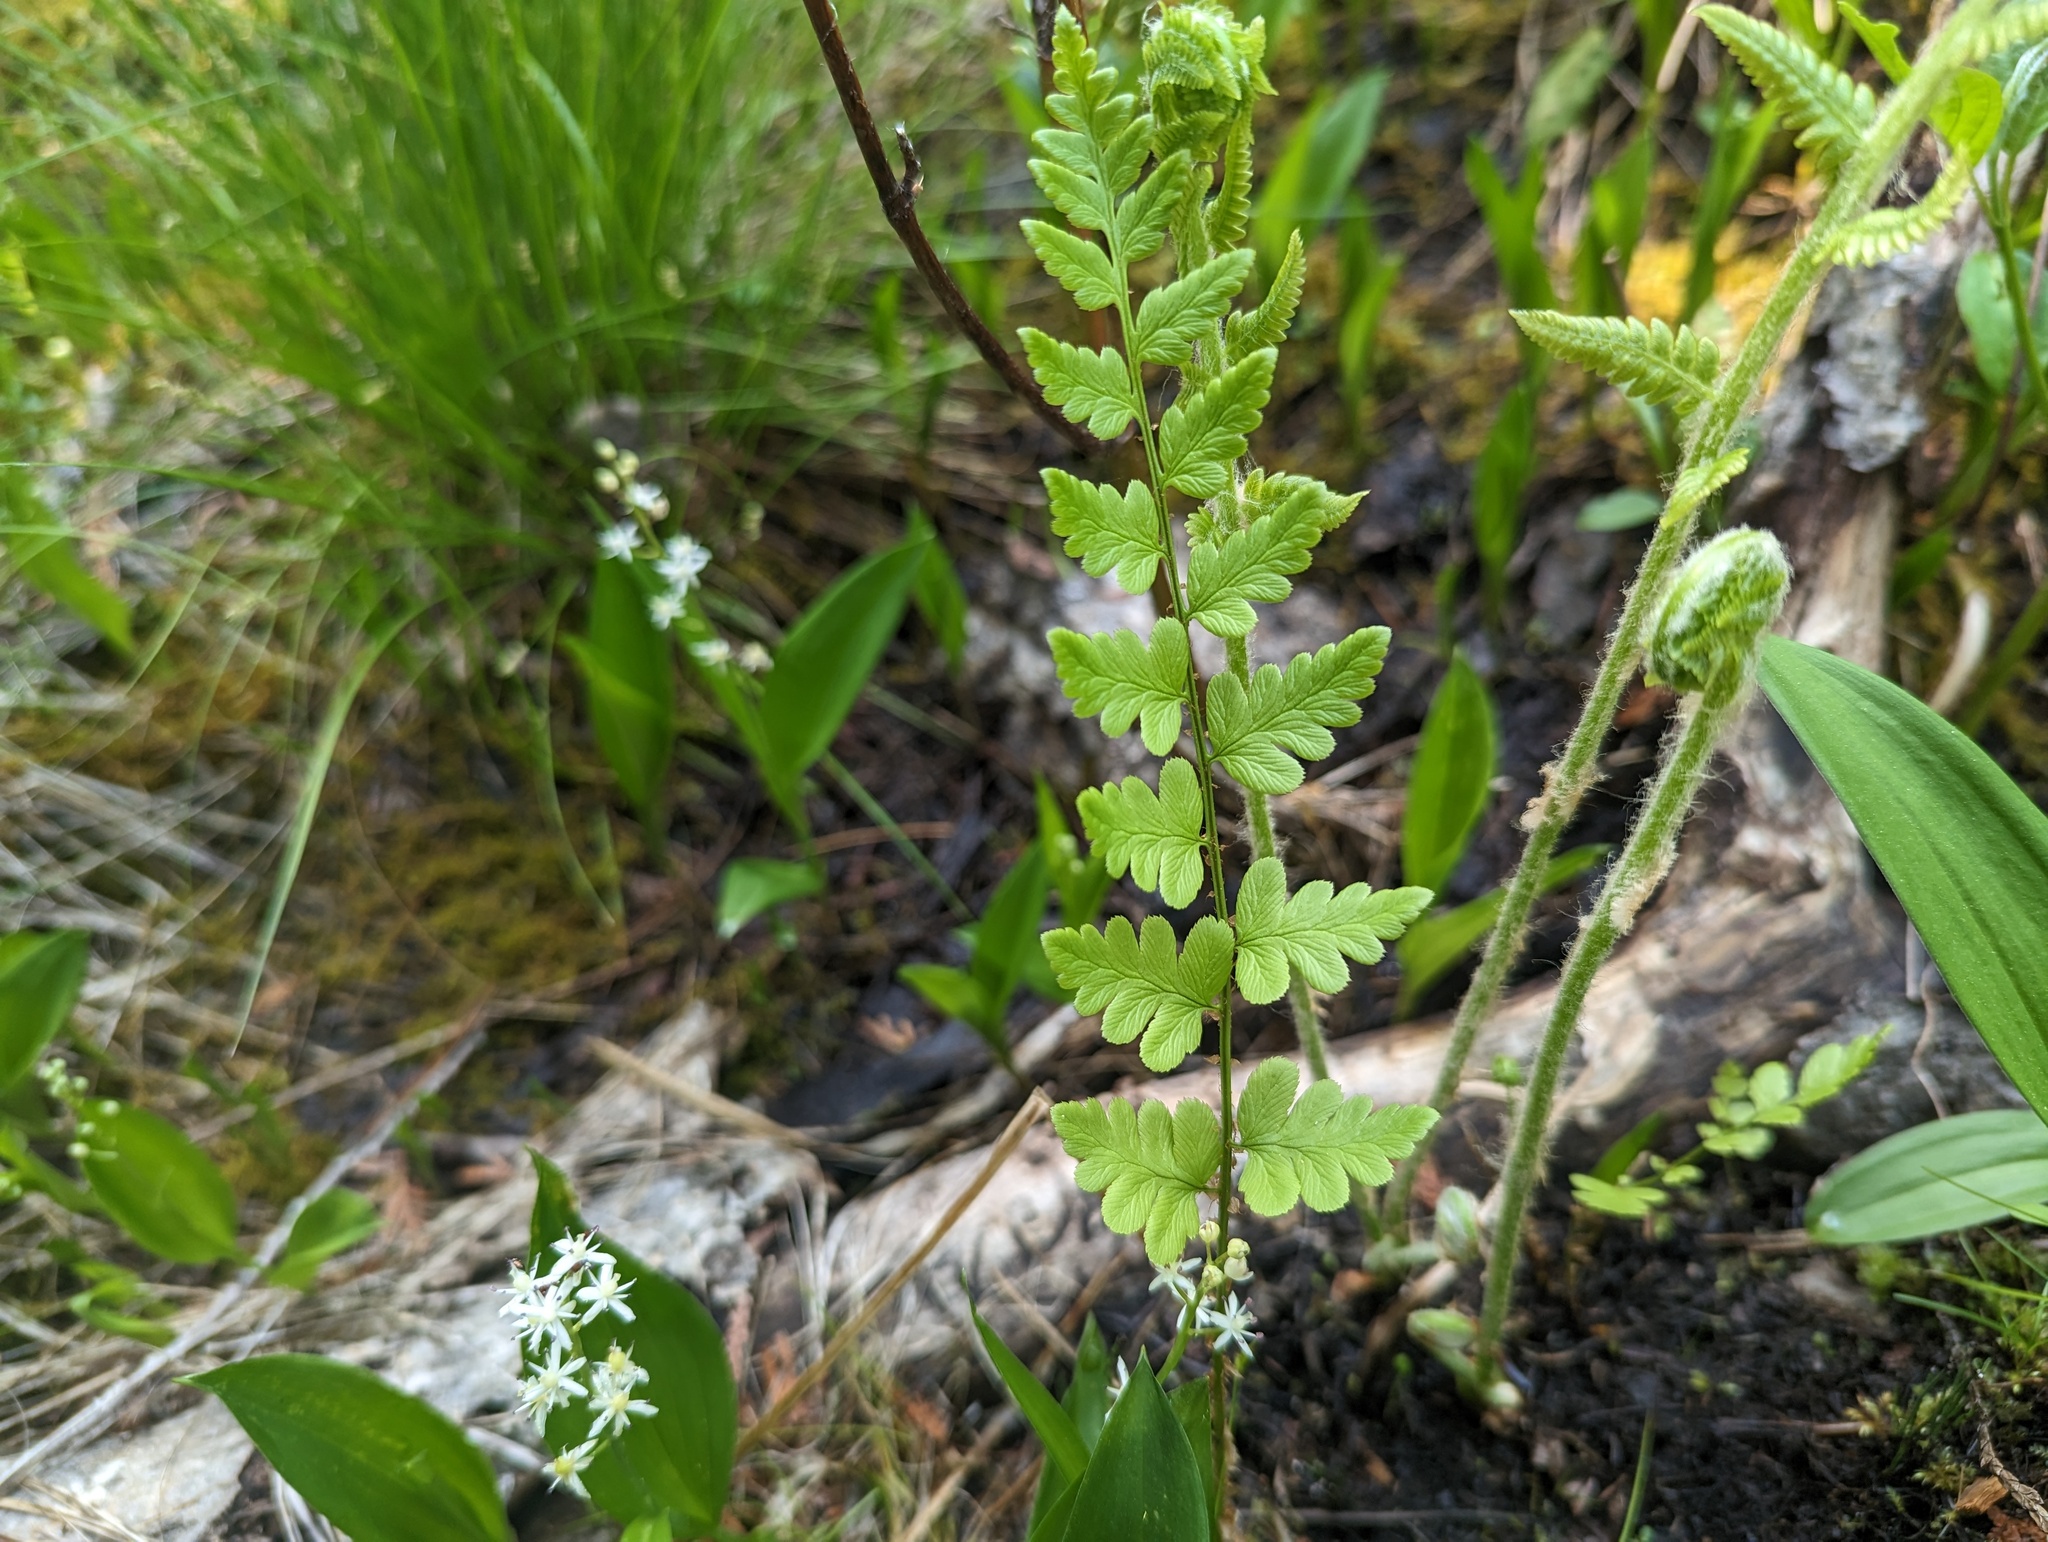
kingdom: Plantae
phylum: Tracheophyta
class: Polypodiopsida
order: Polypodiales
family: Dryopteridaceae
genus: Dryopteris
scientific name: Dryopteris cristata
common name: Crested wood fern
